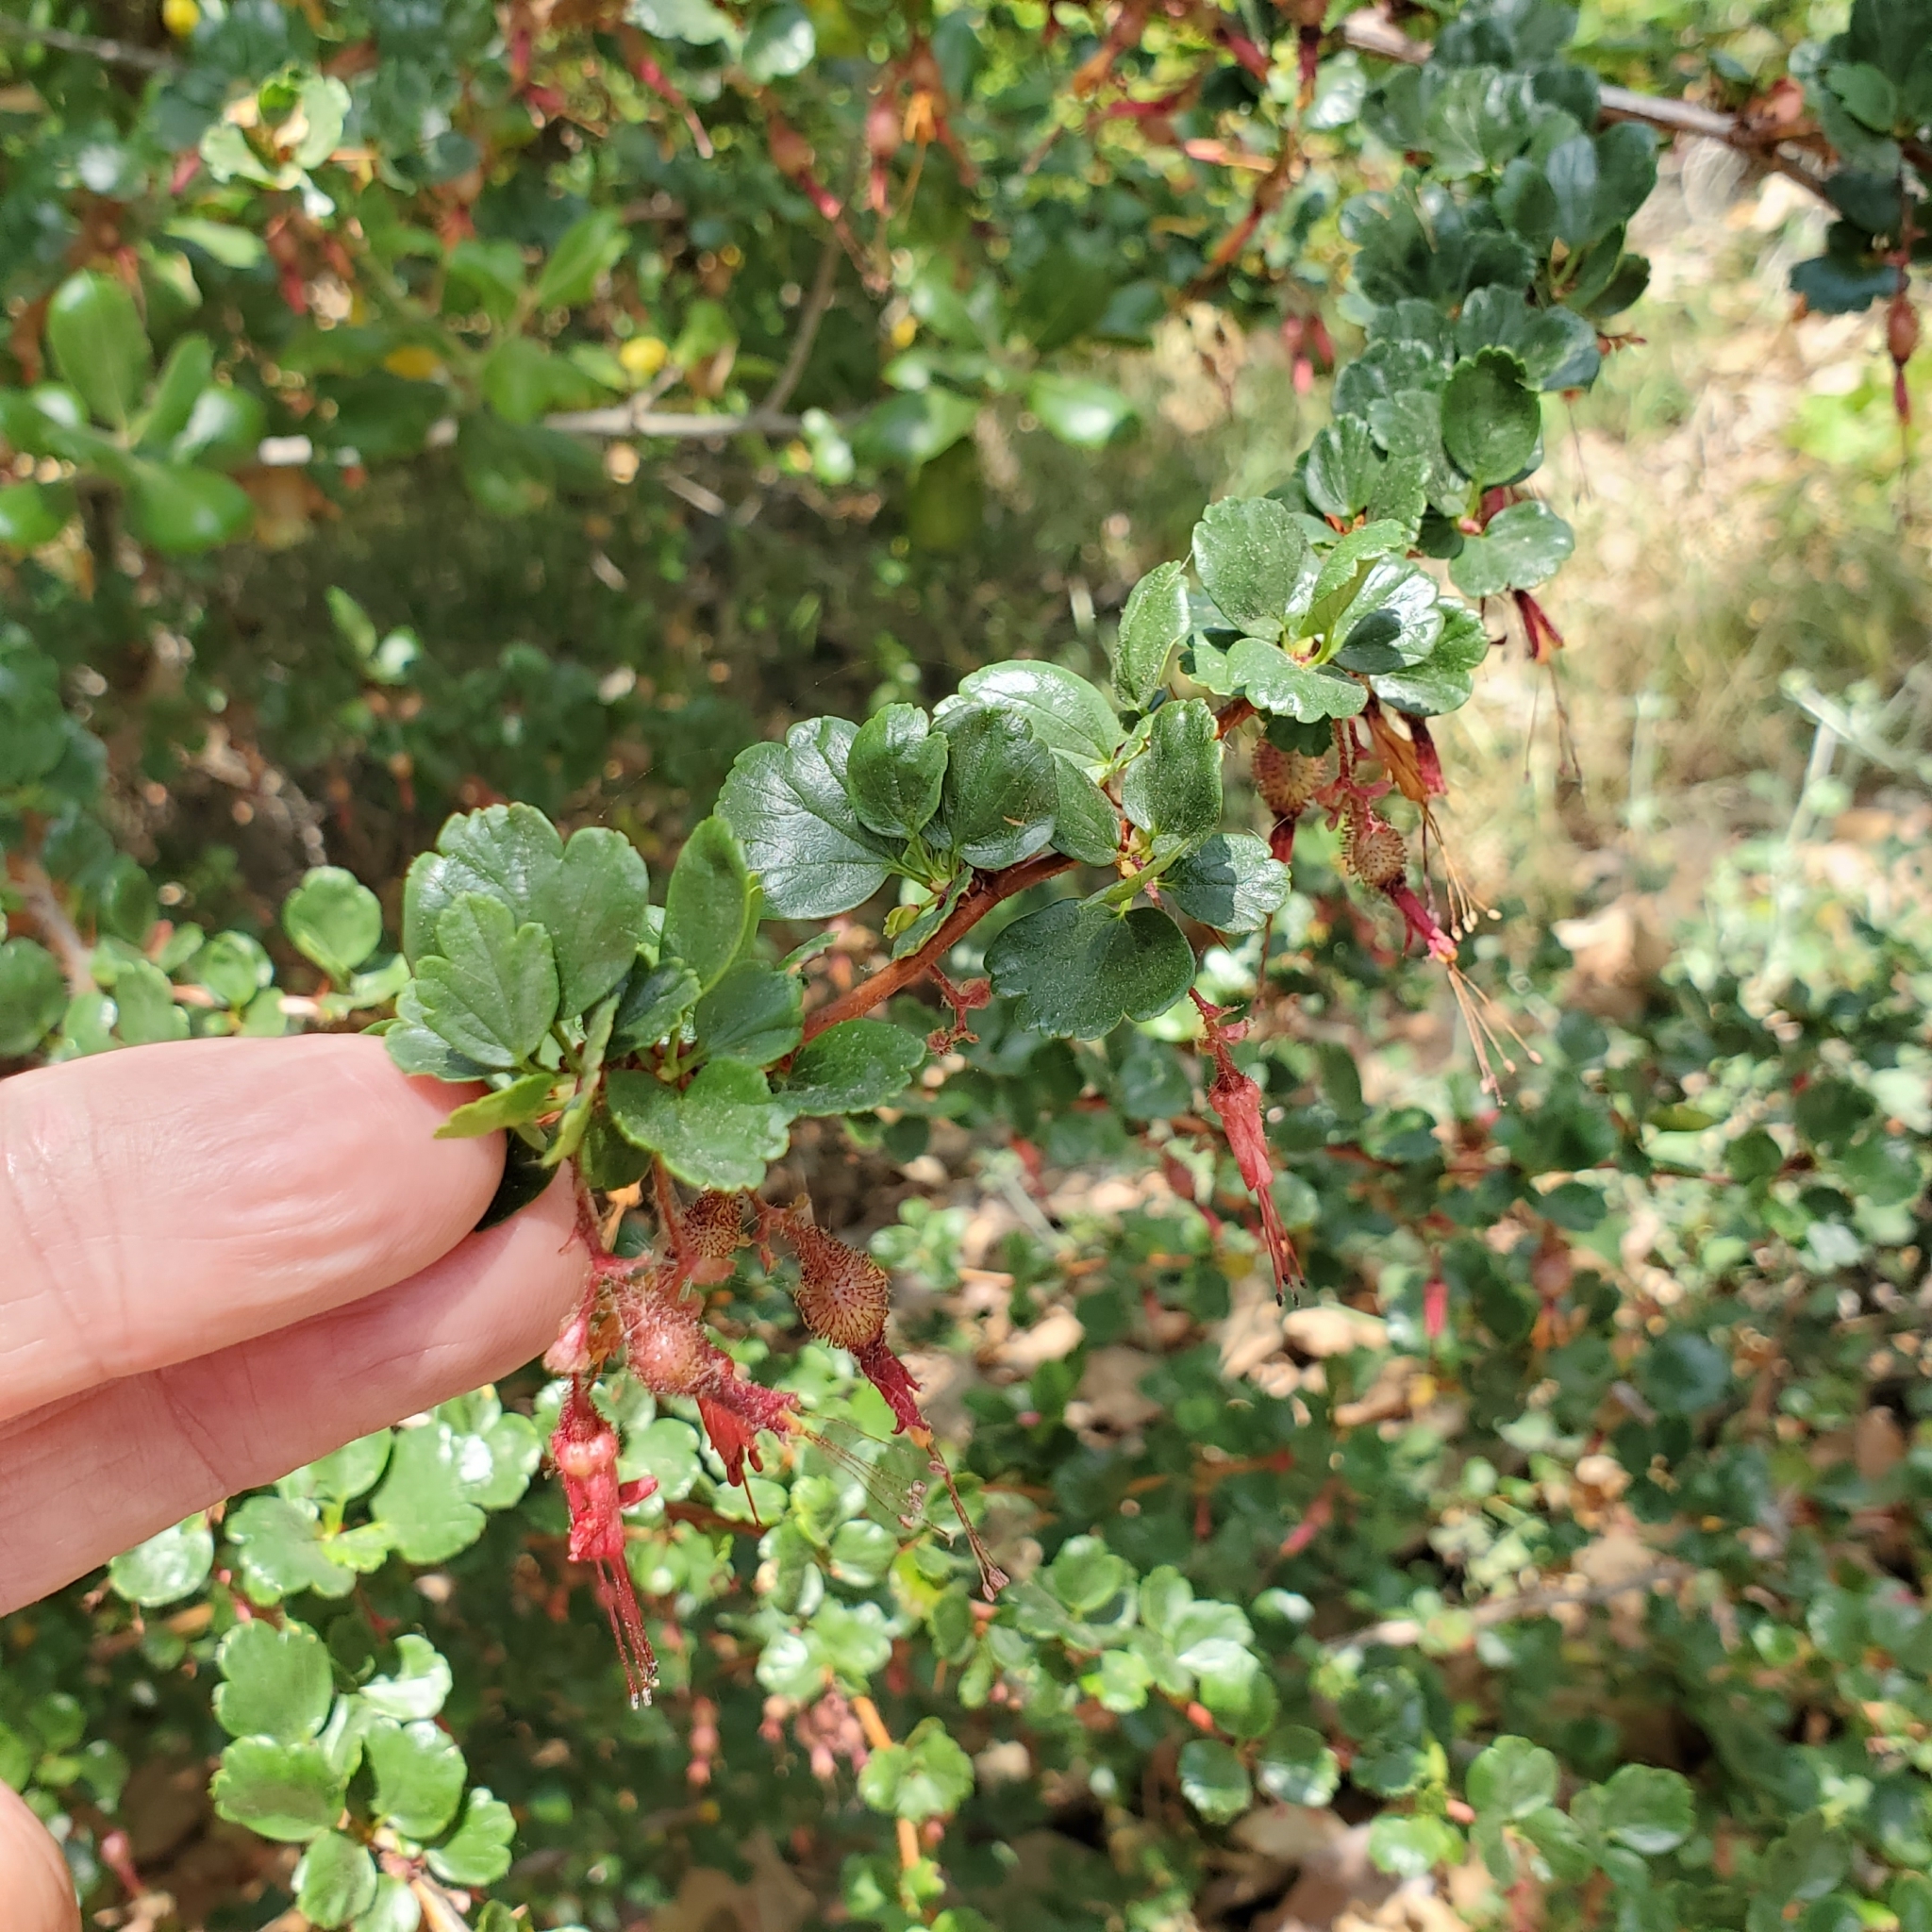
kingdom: Plantae
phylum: Tracheophyta
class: Magnoliopsida
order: Saxifragales
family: Grossulariaceae
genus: Ribes
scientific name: Ribes speciosum
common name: Fuchsia-flower gooseberry
